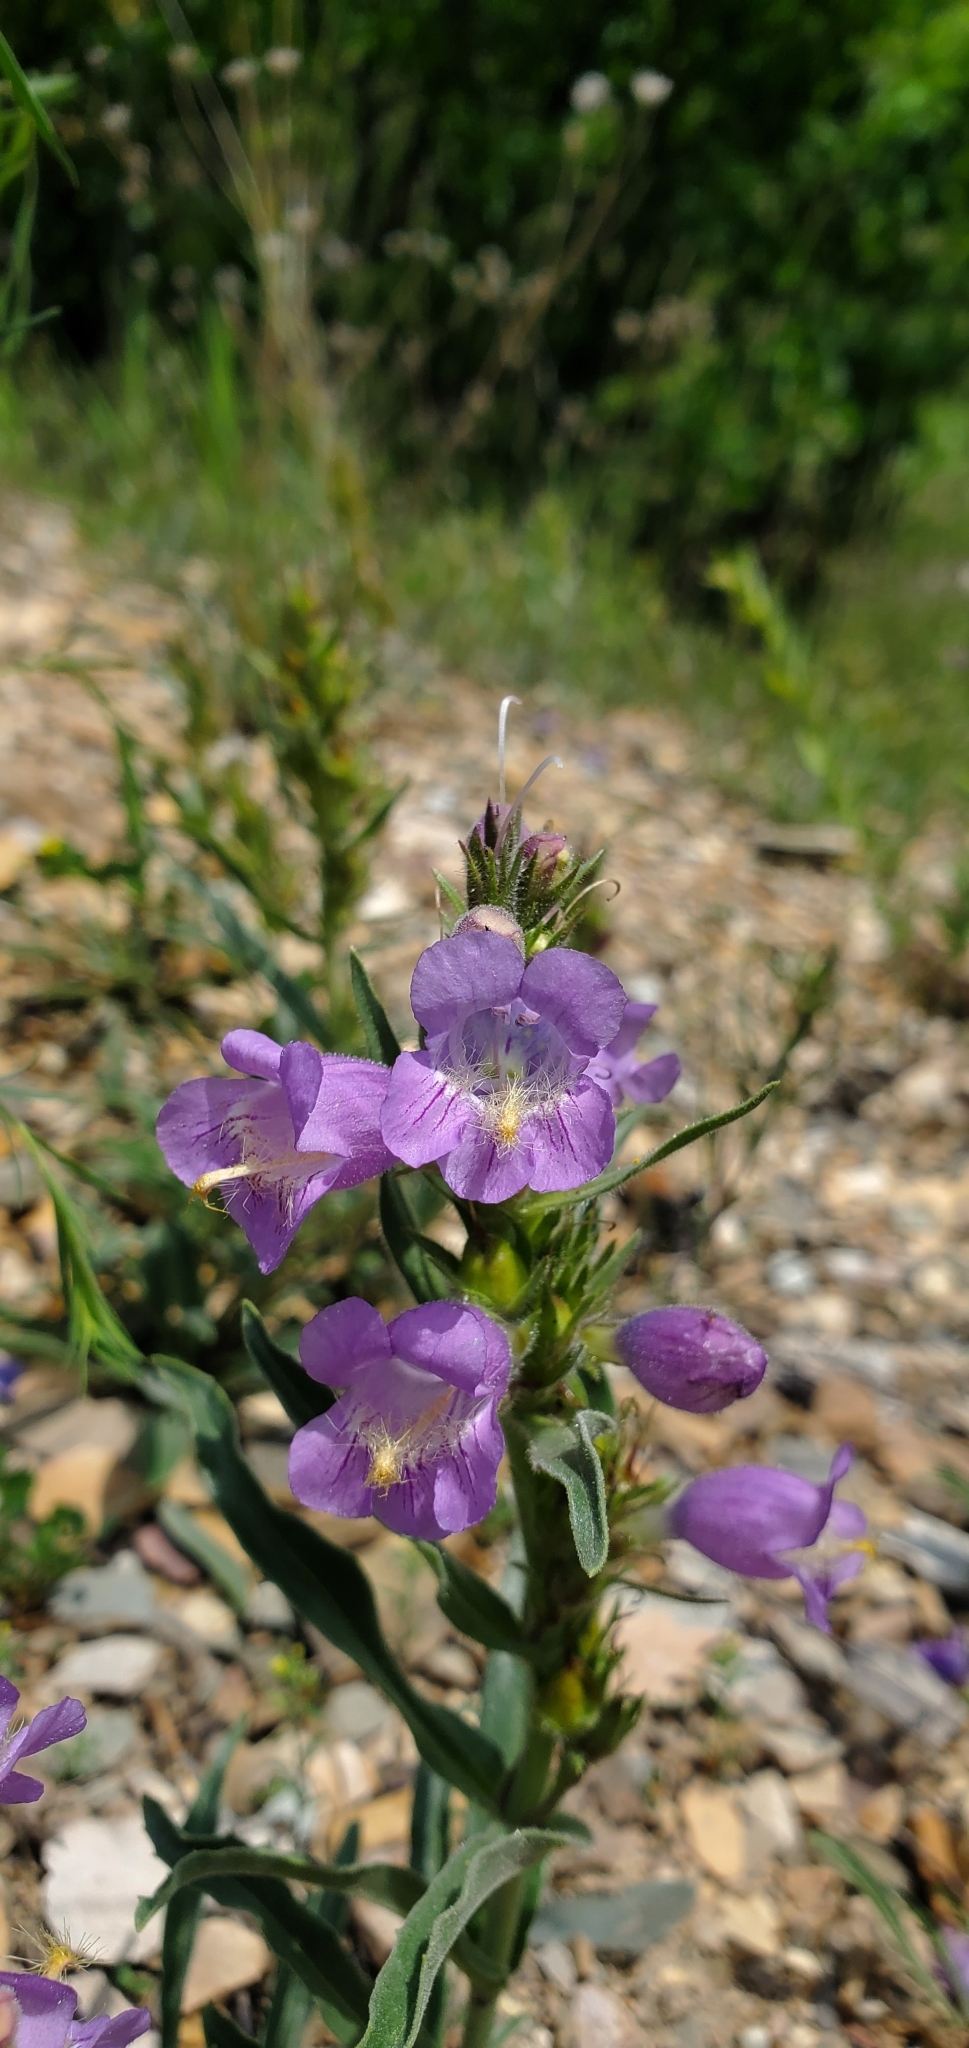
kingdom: Plantae
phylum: Tracheophyta
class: Magnoliopsida
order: Lamiales
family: Plantaginaceae
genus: Penstemon
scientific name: Penstemon eriantherus
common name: Crested beardtongue
